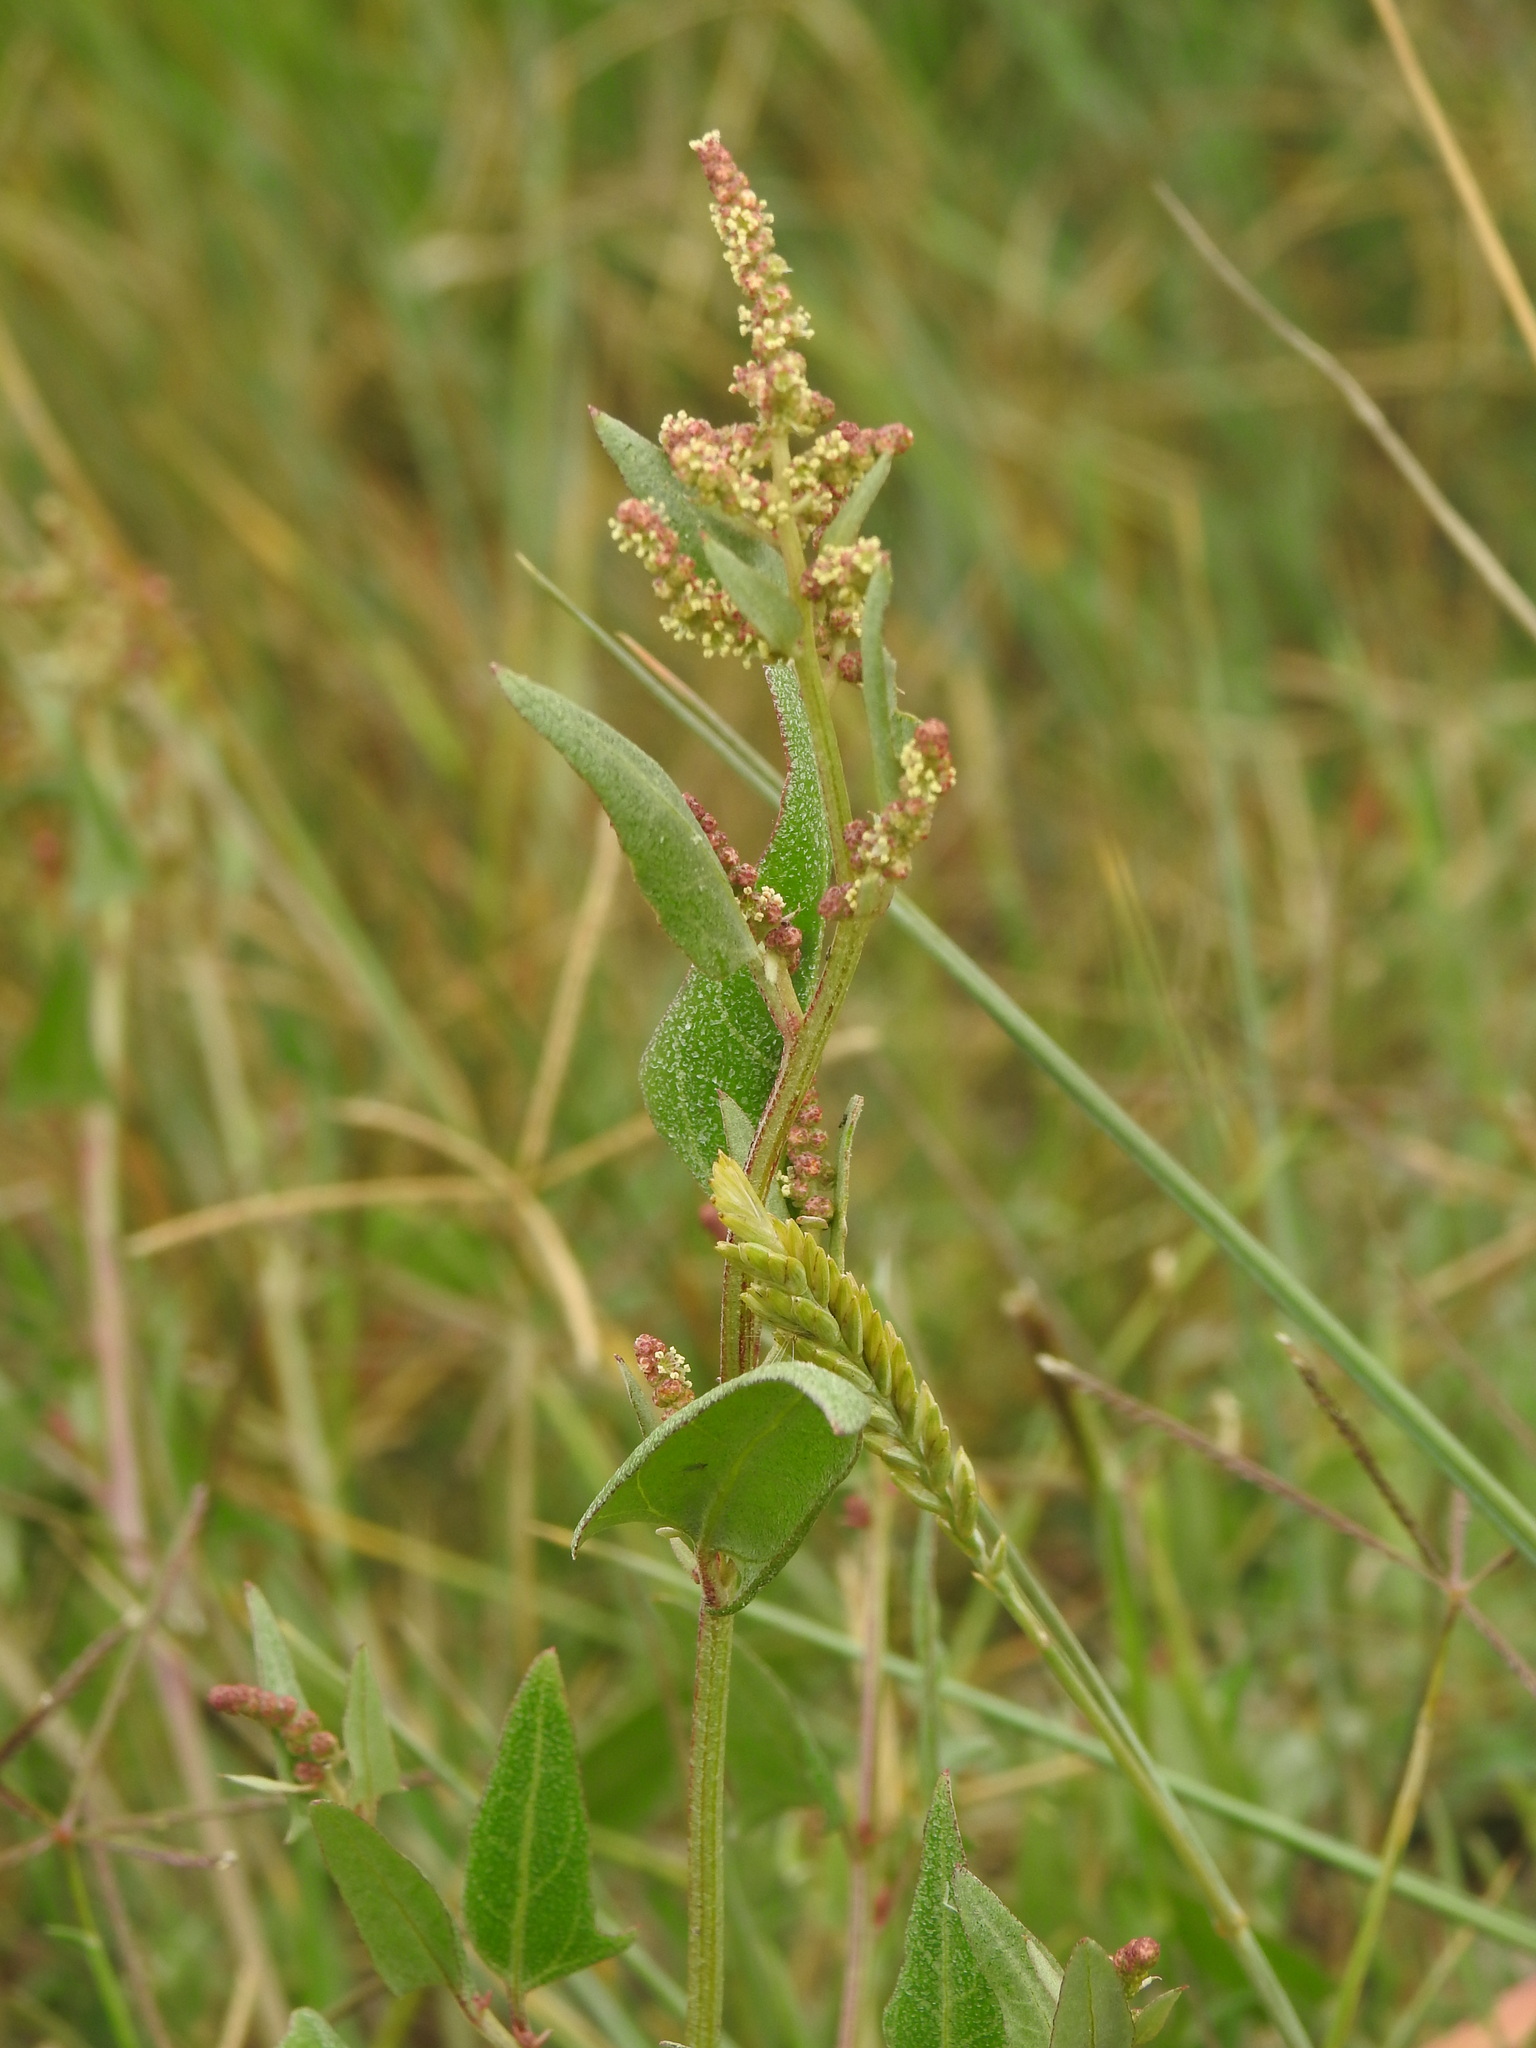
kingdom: Plantae
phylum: Tracheophyta
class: Magnoliopsida
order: Caryophyllales
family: Amaranthaceae
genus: Atriplex
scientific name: Atriplex prostrata
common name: Spear-leaved orache
